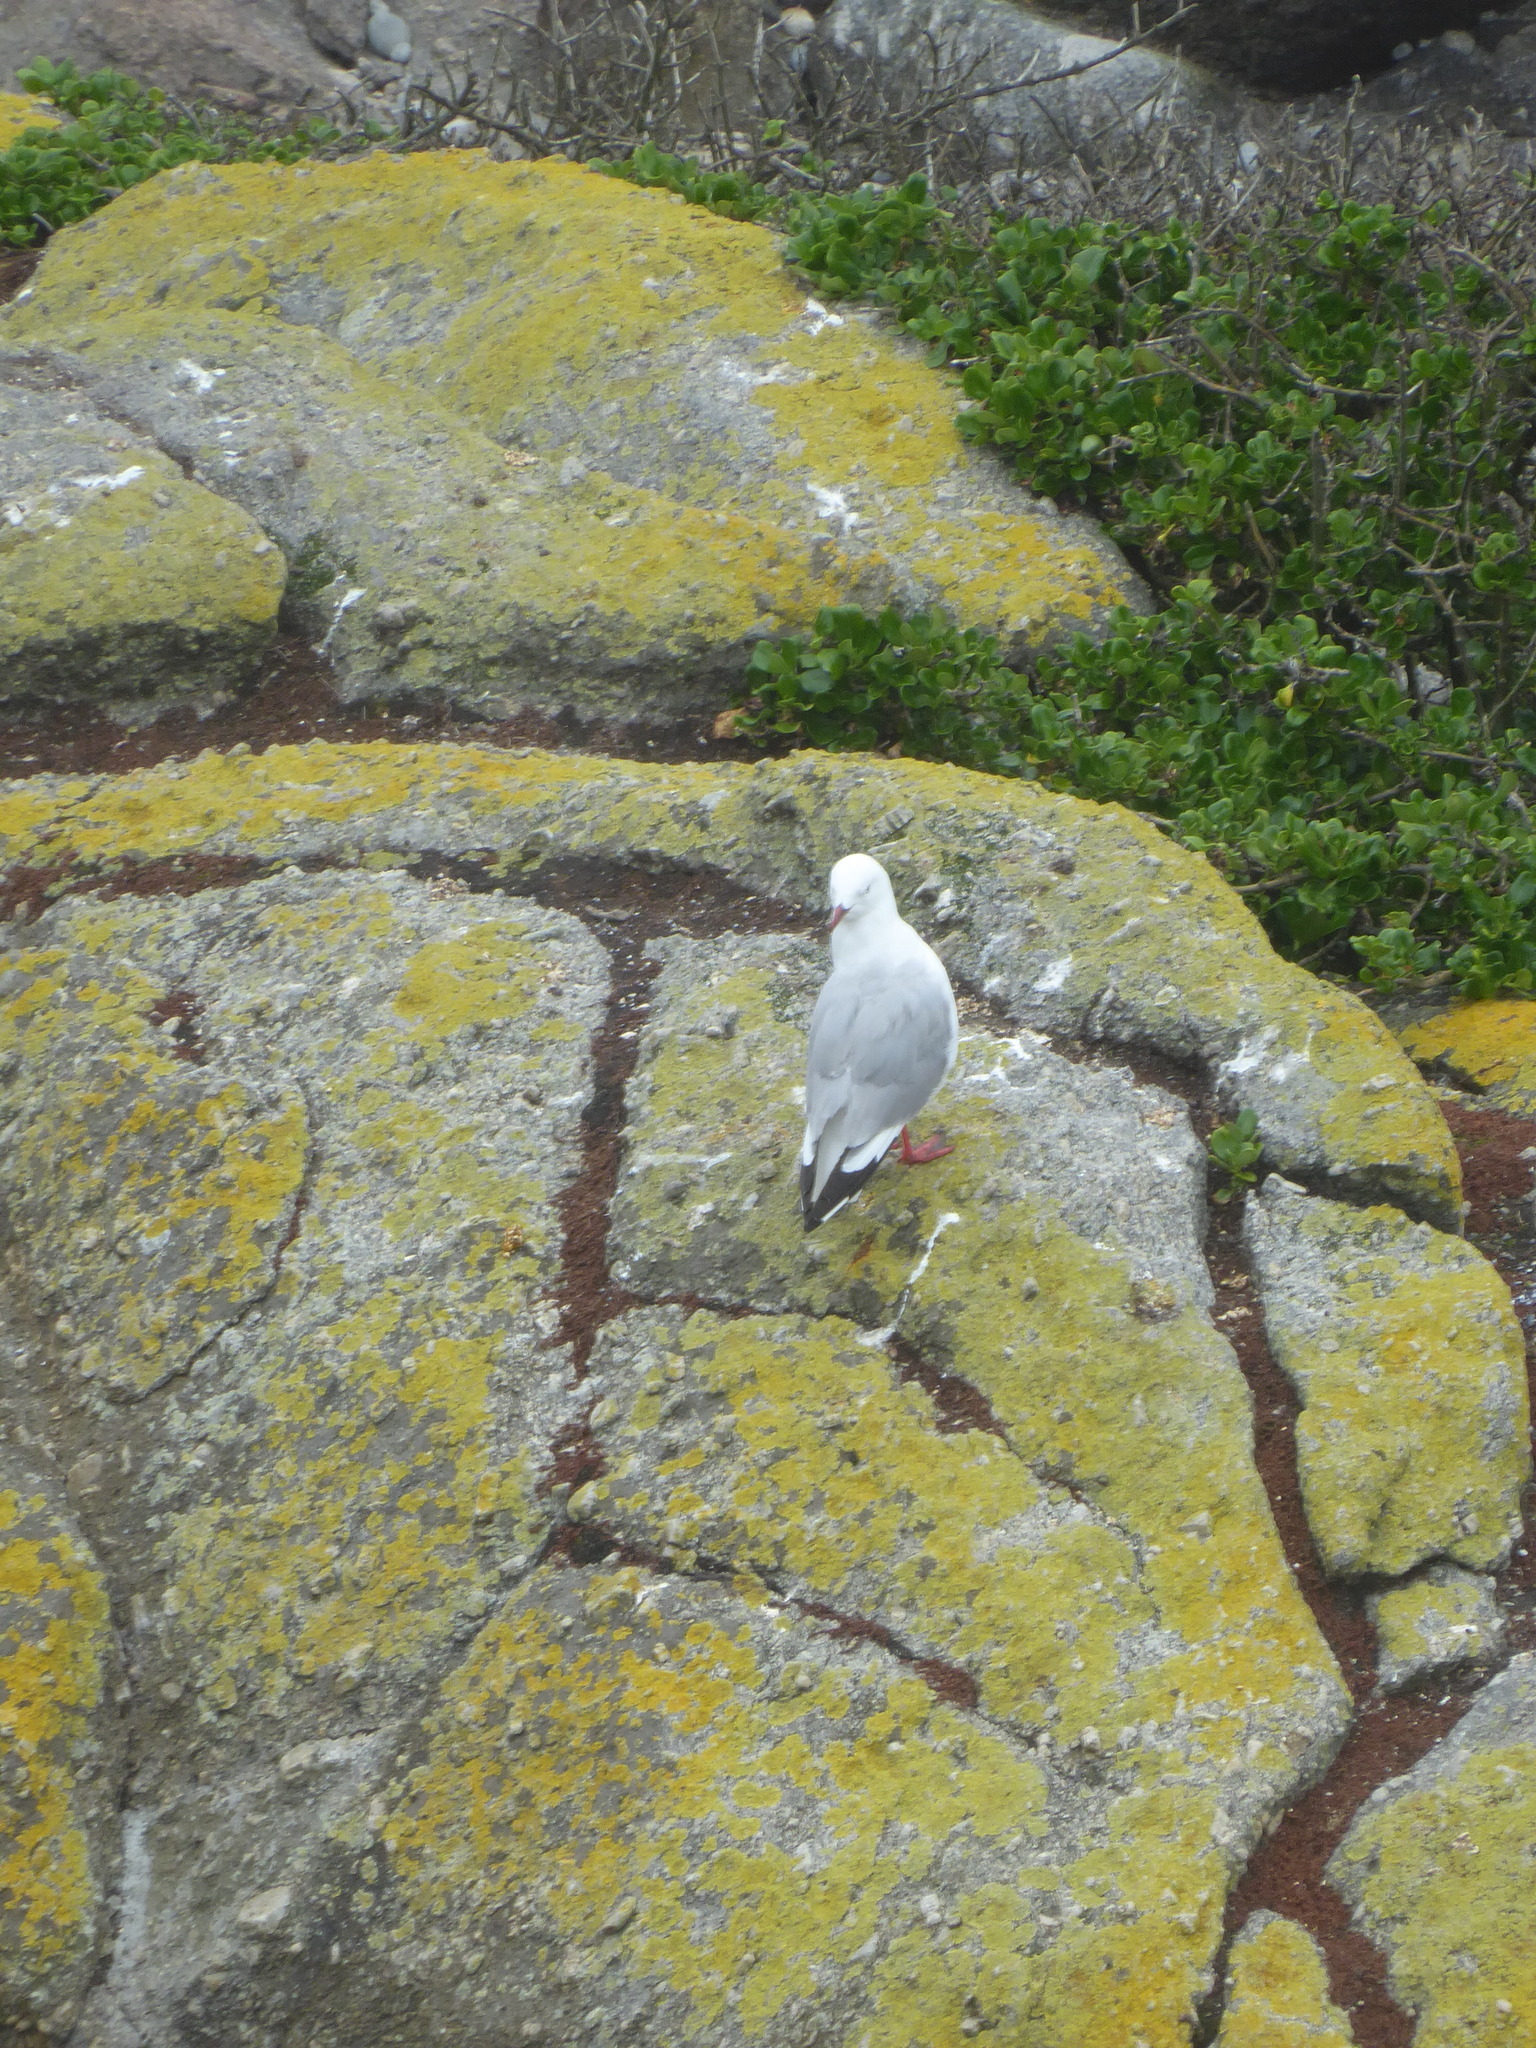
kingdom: Animalia
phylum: Chordata
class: Aves
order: Charadriiformes
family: Laridae
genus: Chroicocephalus
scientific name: Chroicocephalus novaehollandiae
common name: Silver gull
